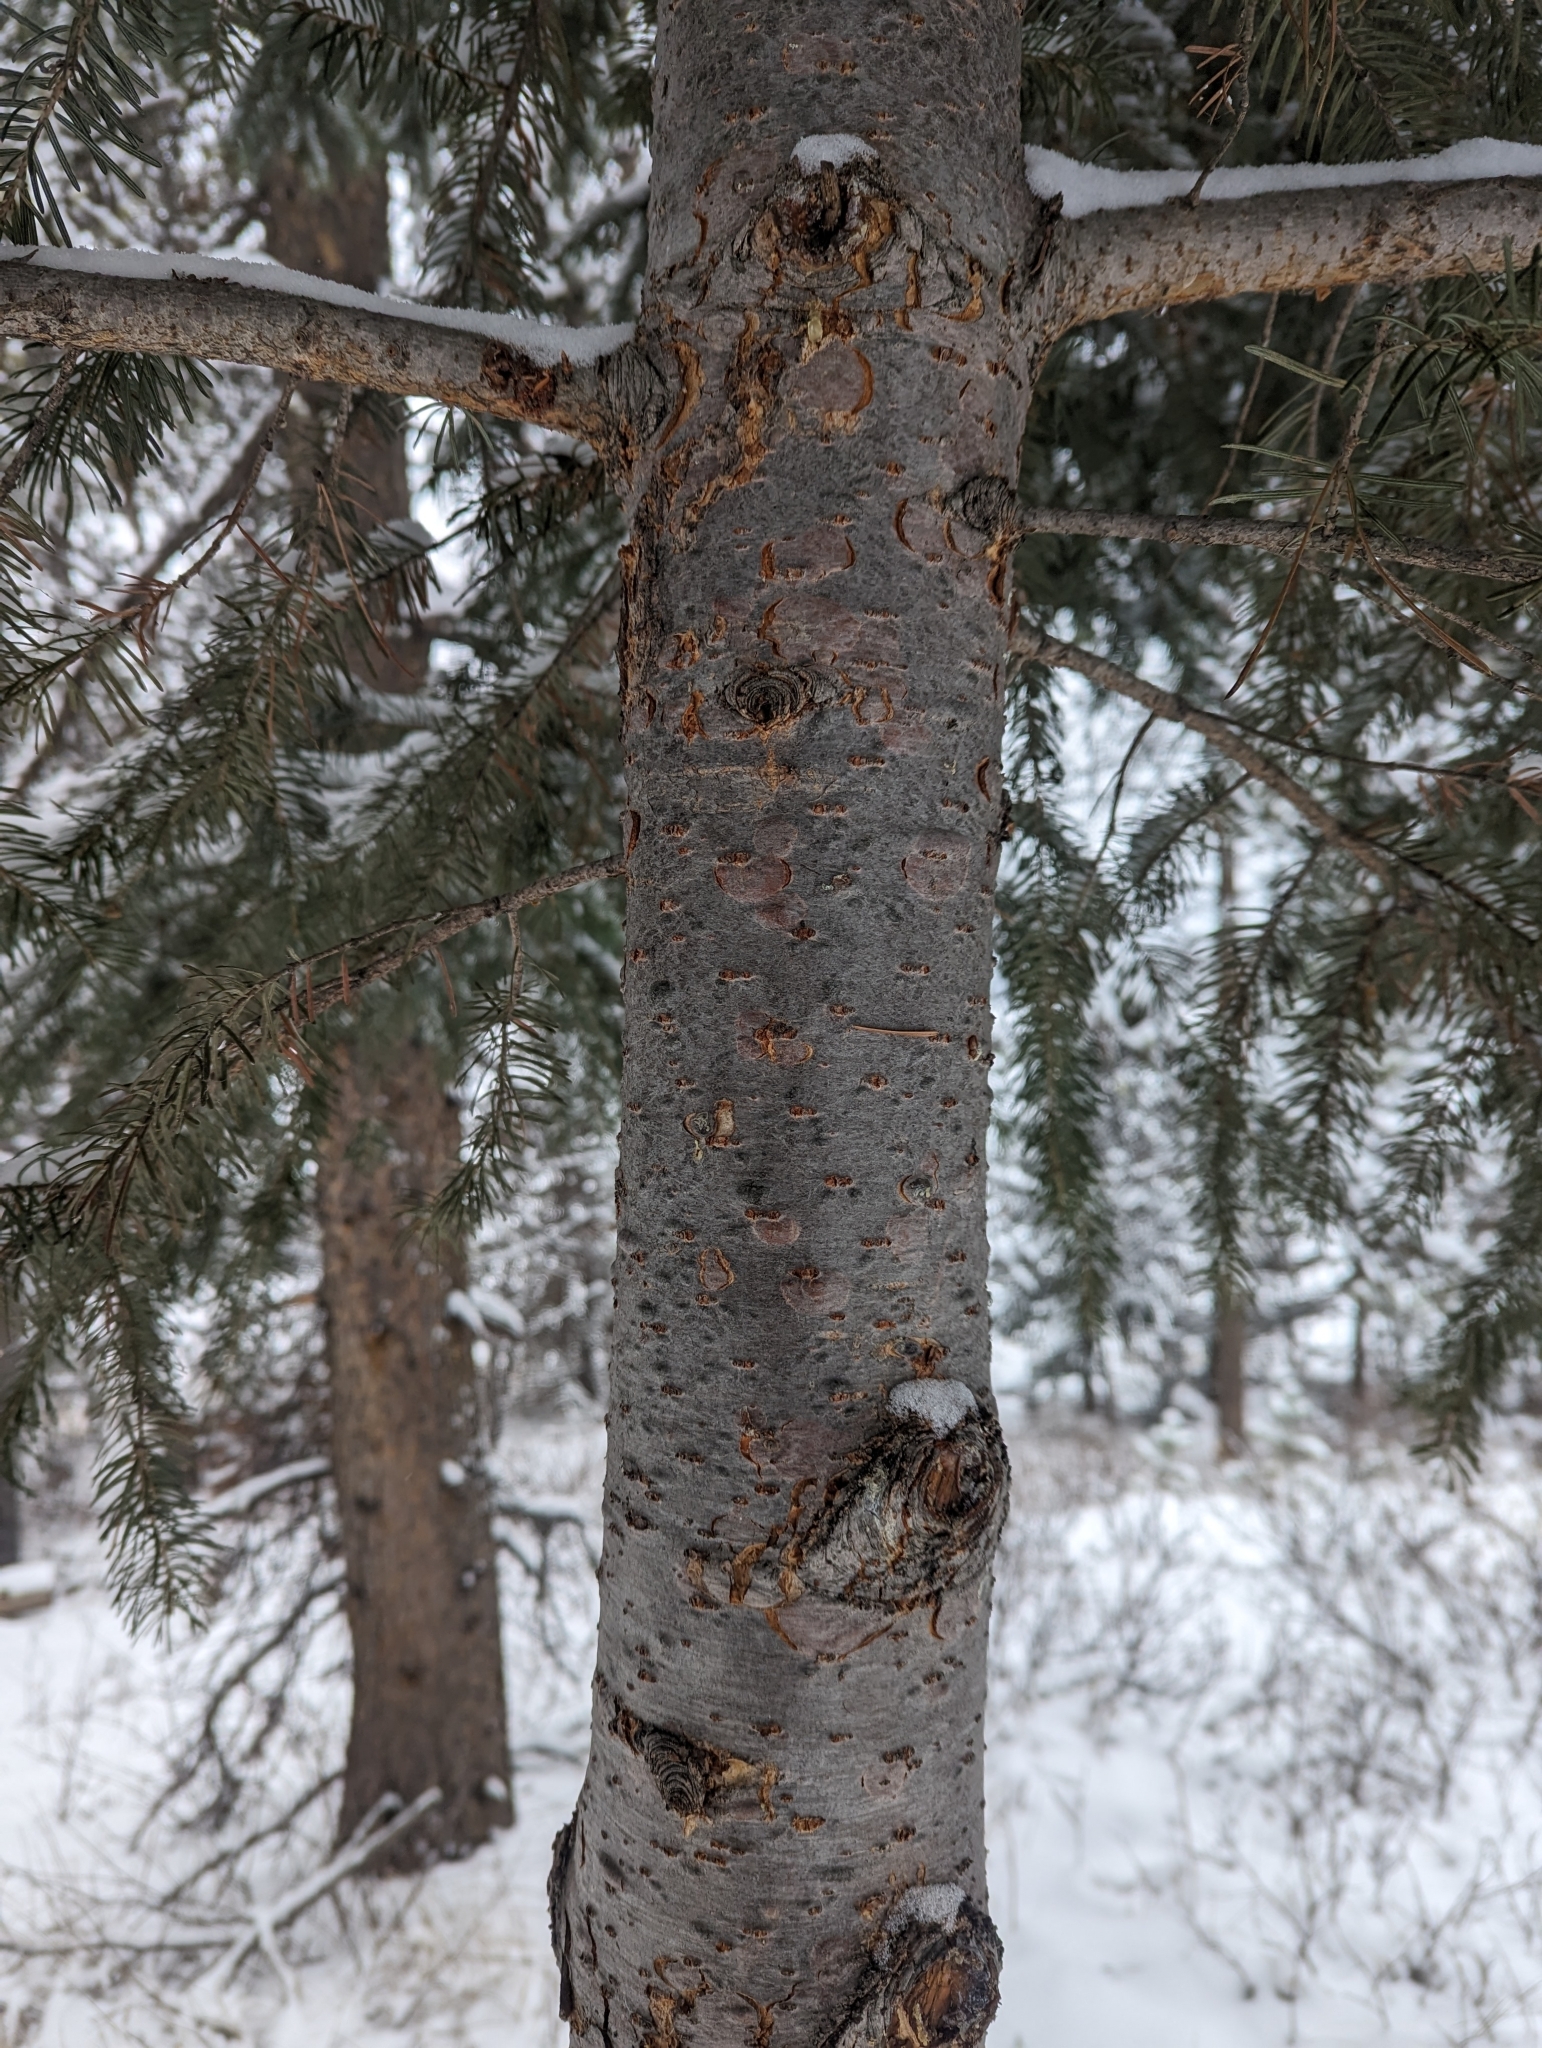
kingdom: Plantae
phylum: Tracheophyta
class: Pinopsida
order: Pinales
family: Pinaceae
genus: Pseudotsuga
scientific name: Pseudotsuga menziesii
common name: Douglas fir
